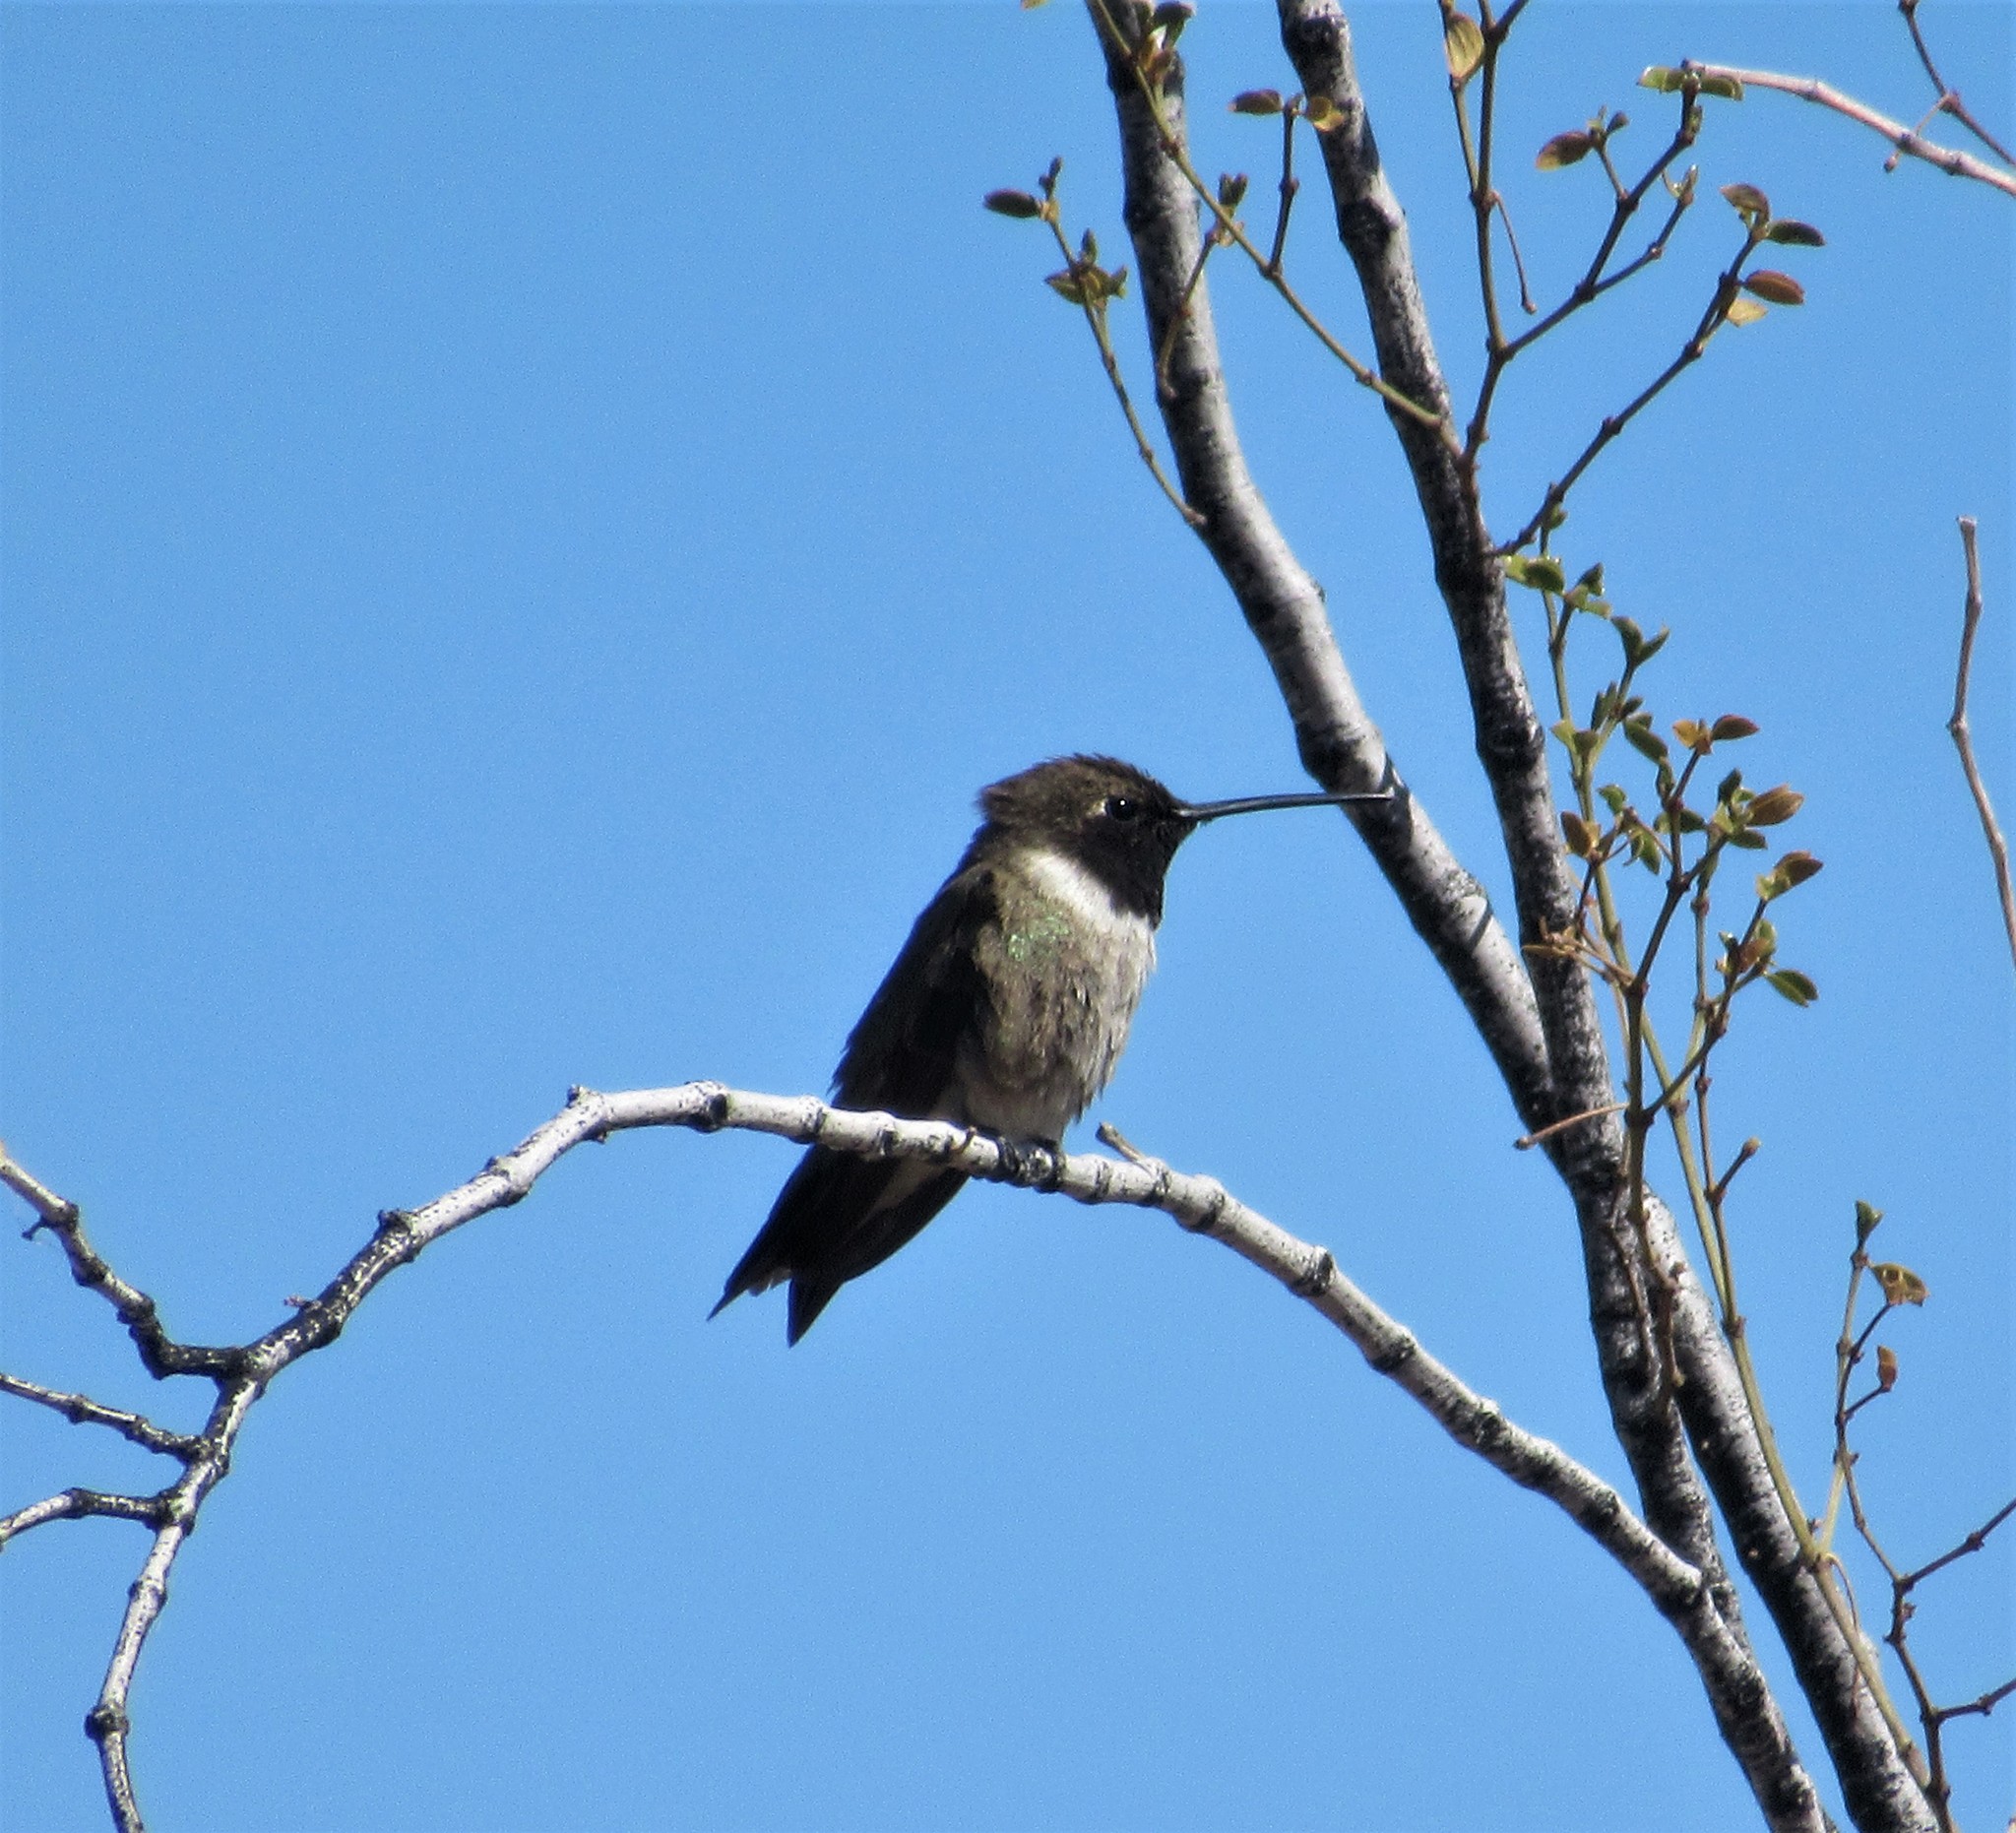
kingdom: Animalia
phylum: Chordata
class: Aves
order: Apodiformes
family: Trochilidae
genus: Archilochus
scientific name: Archilochus alexandri
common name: Black-chinned hummingbird
